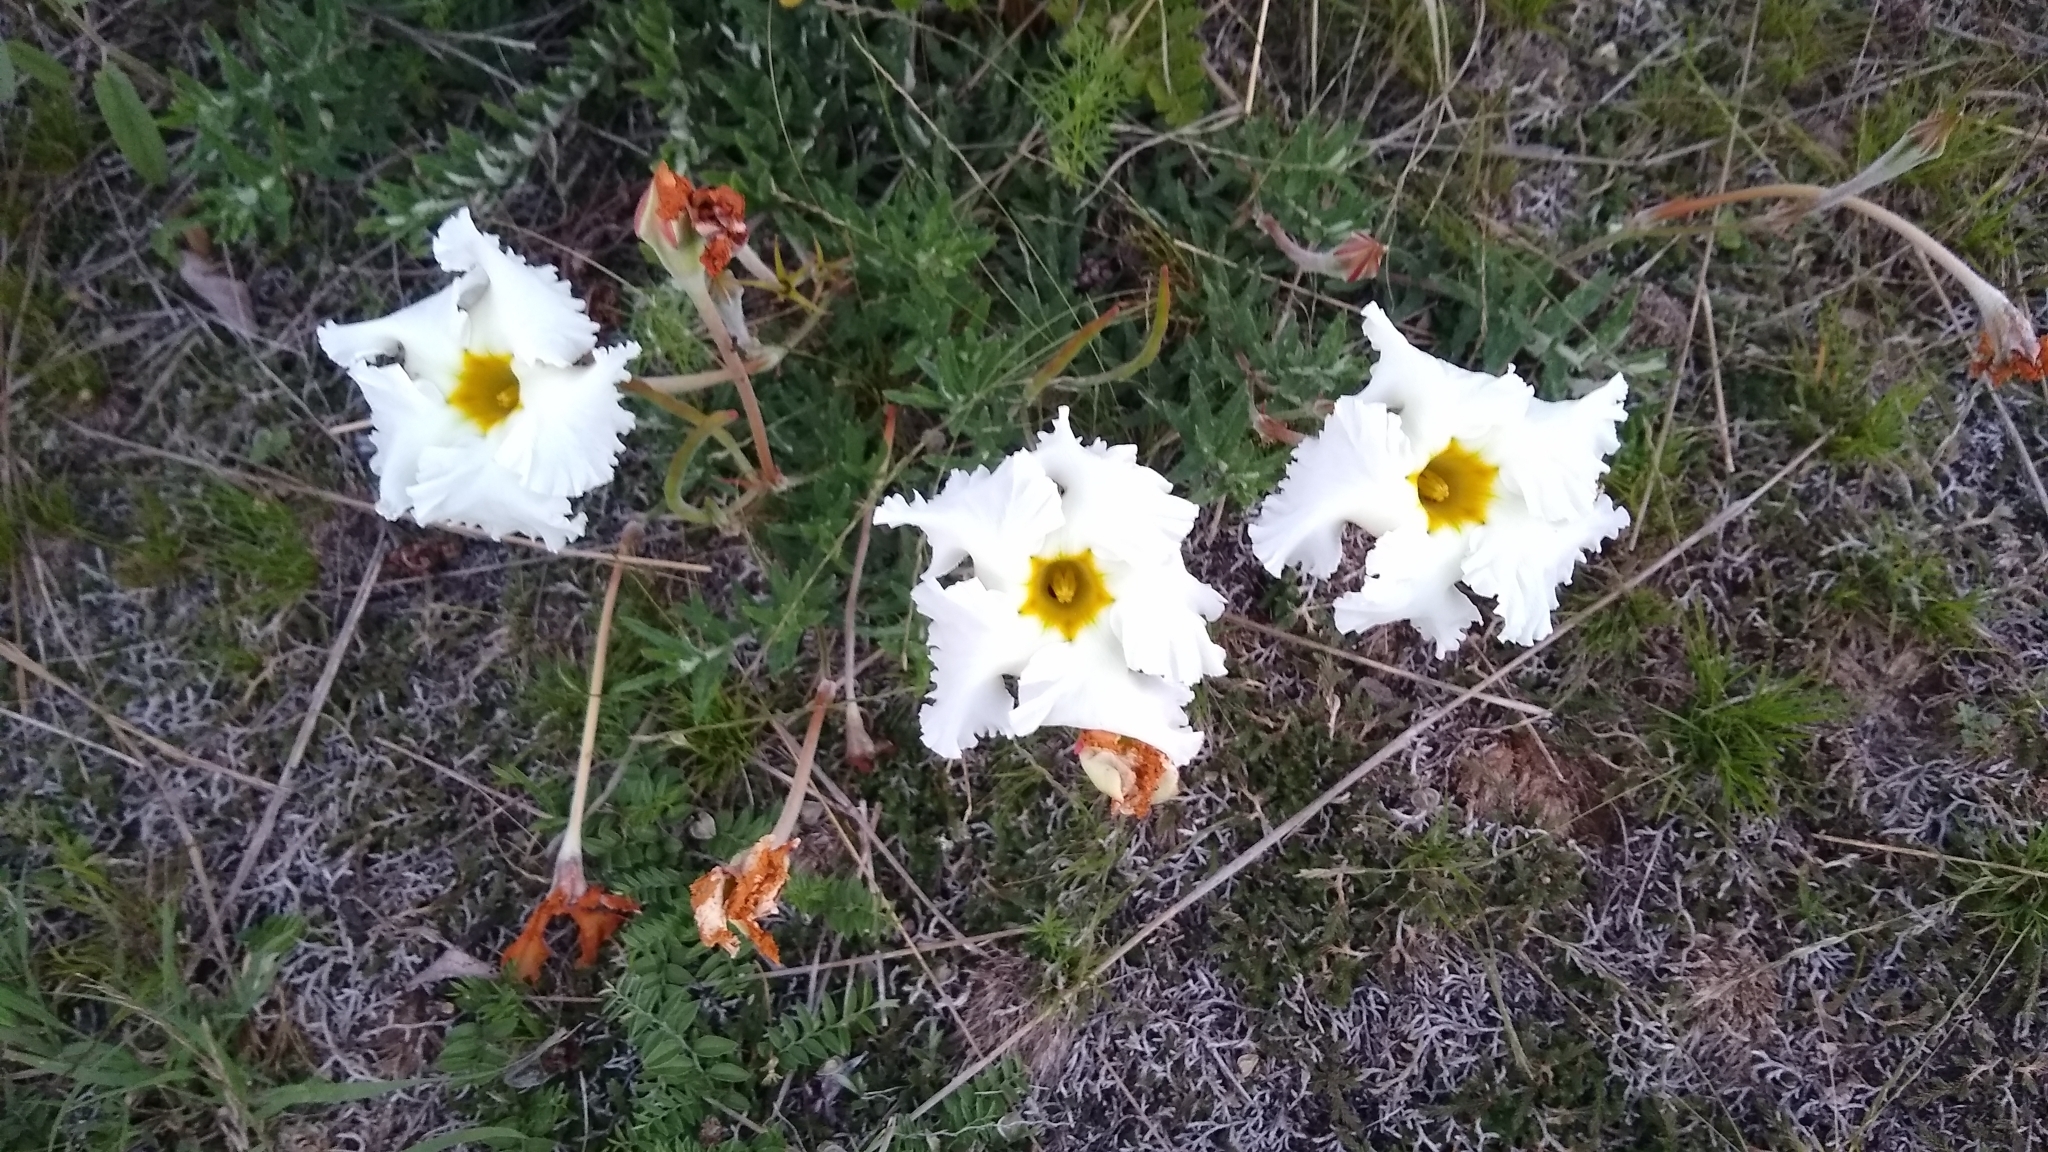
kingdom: Plantae
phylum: Tracheophyta
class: Magnoliopsida
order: Gentianales
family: Apocynaceae
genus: Mandevilla
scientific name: Mandevilla petraea
